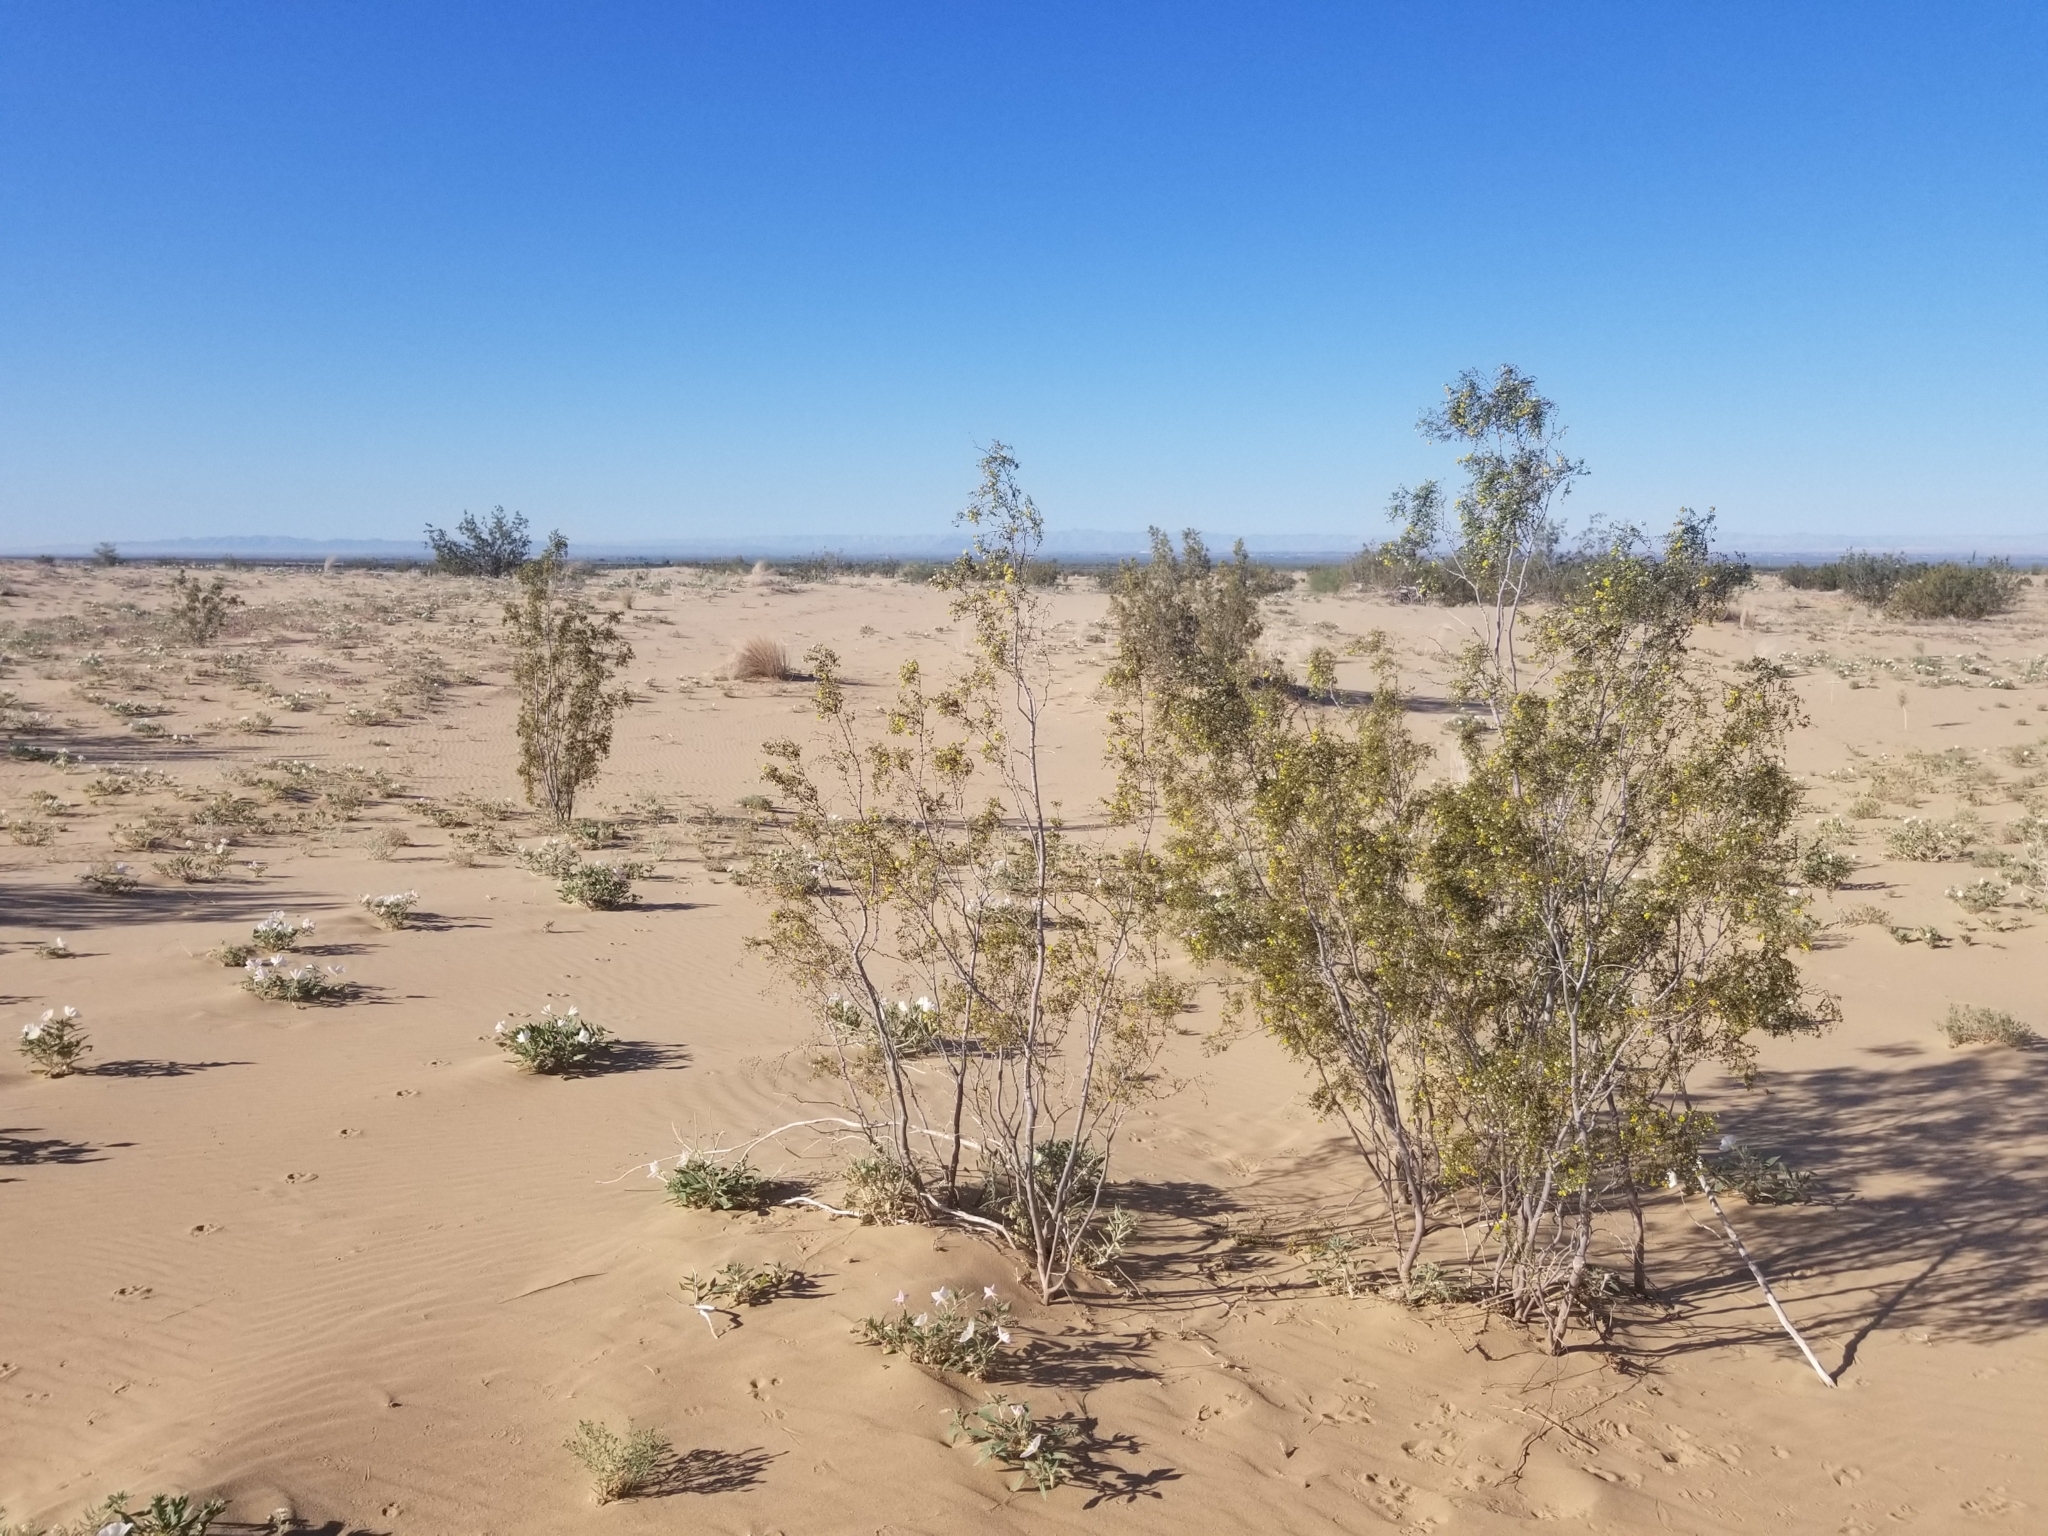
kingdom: Plantae
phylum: Tracheophyta
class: Magnoliopsida
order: Zygophyllales
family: Zygophyllaceae
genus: Larrea
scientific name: Larrea tridentata
